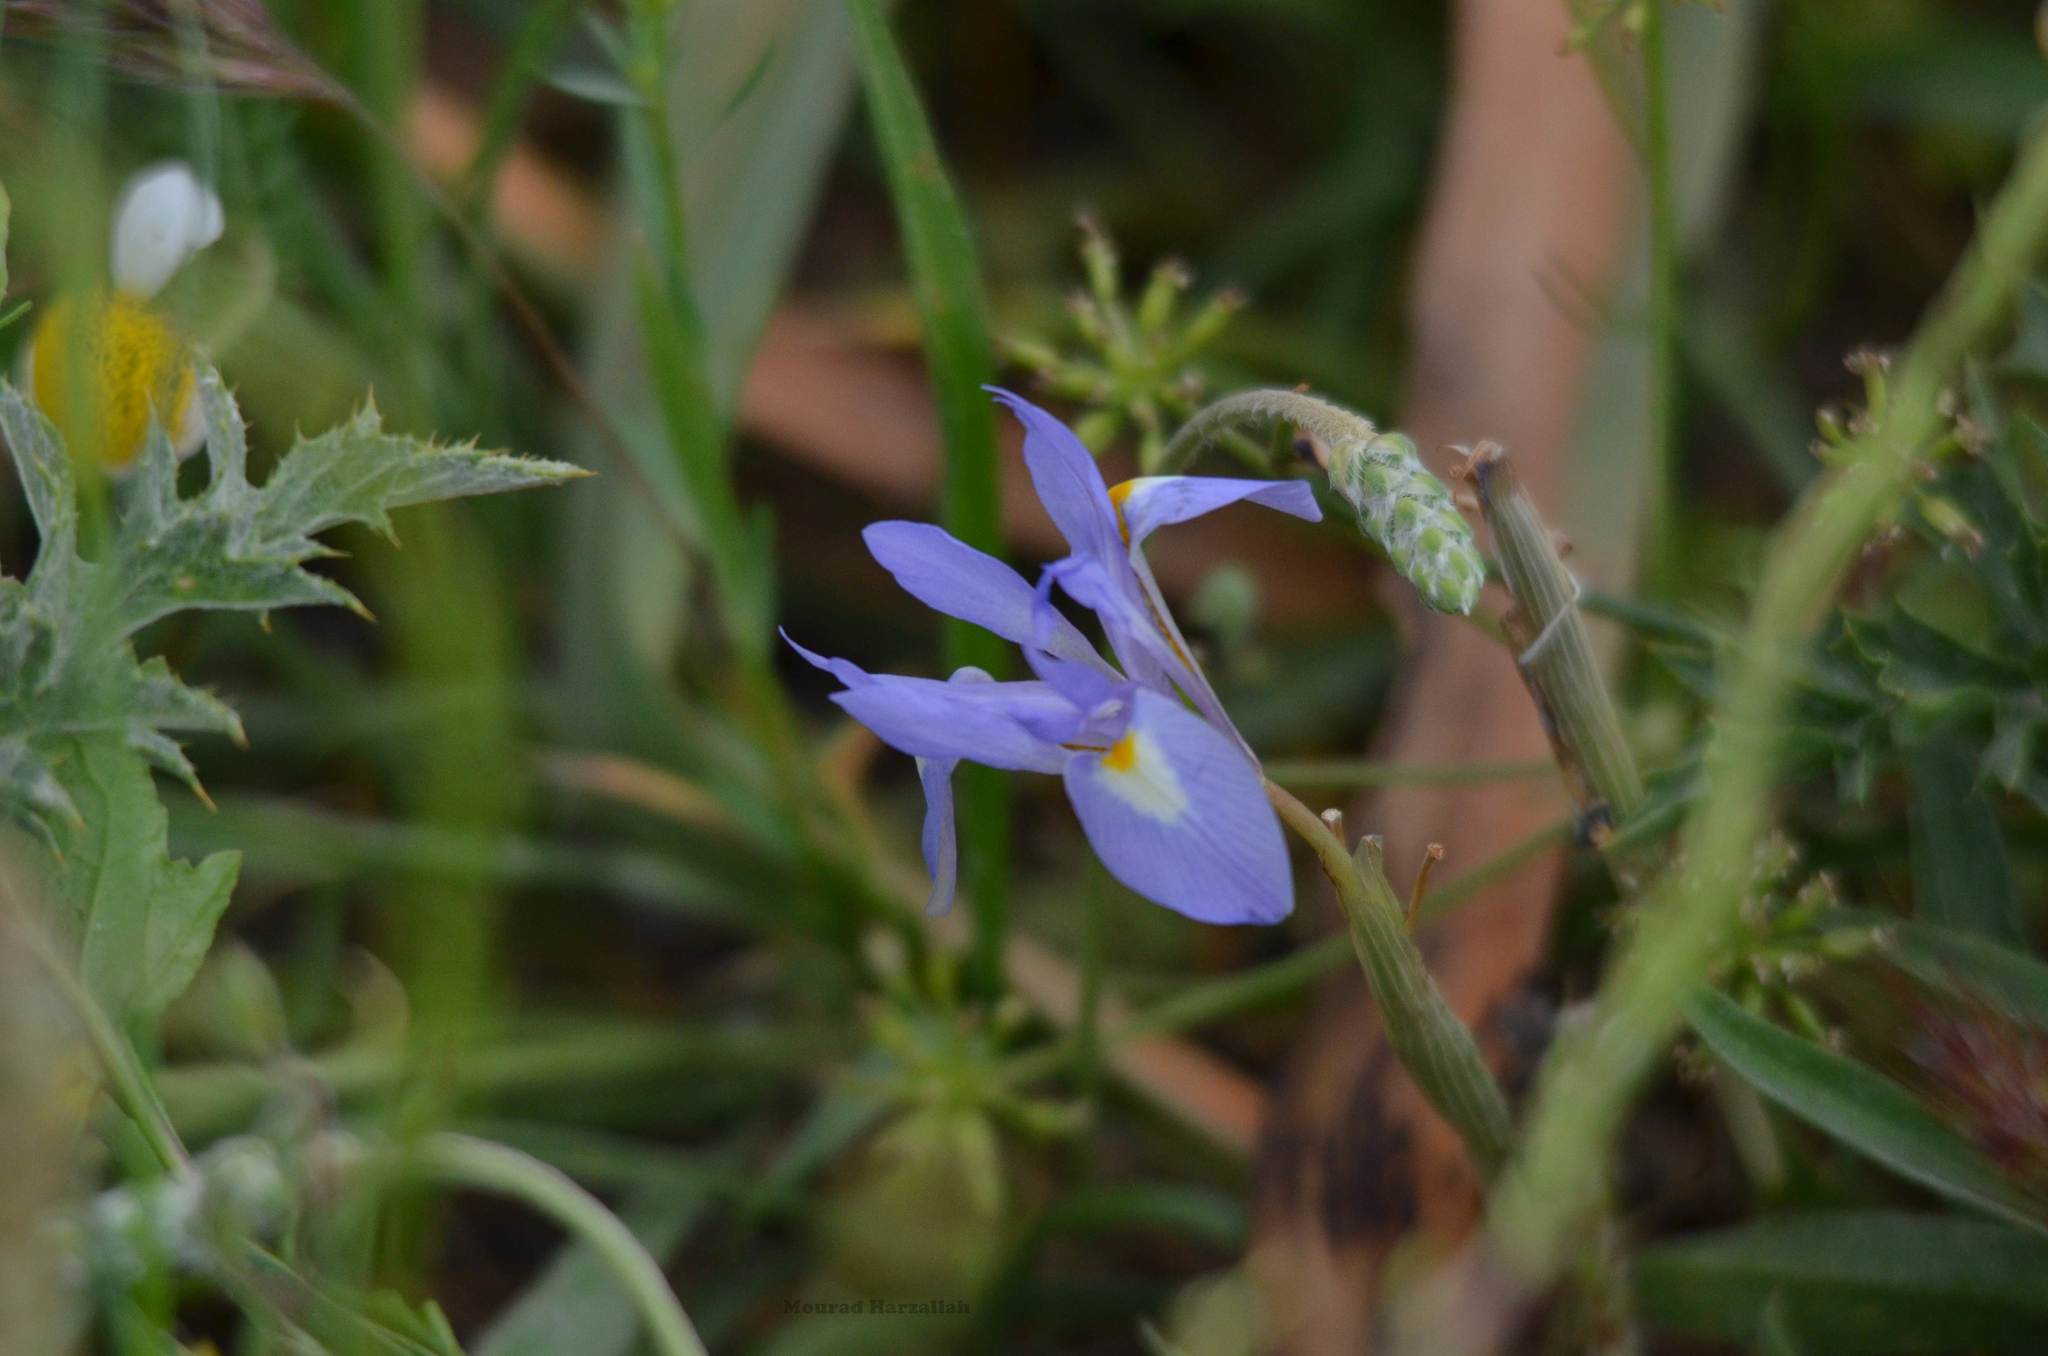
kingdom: Plantae
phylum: Tracheophyta
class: Liliopsida
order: Asparagales
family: Iridaceae
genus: Moraea
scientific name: Moraea sisyrinchium
